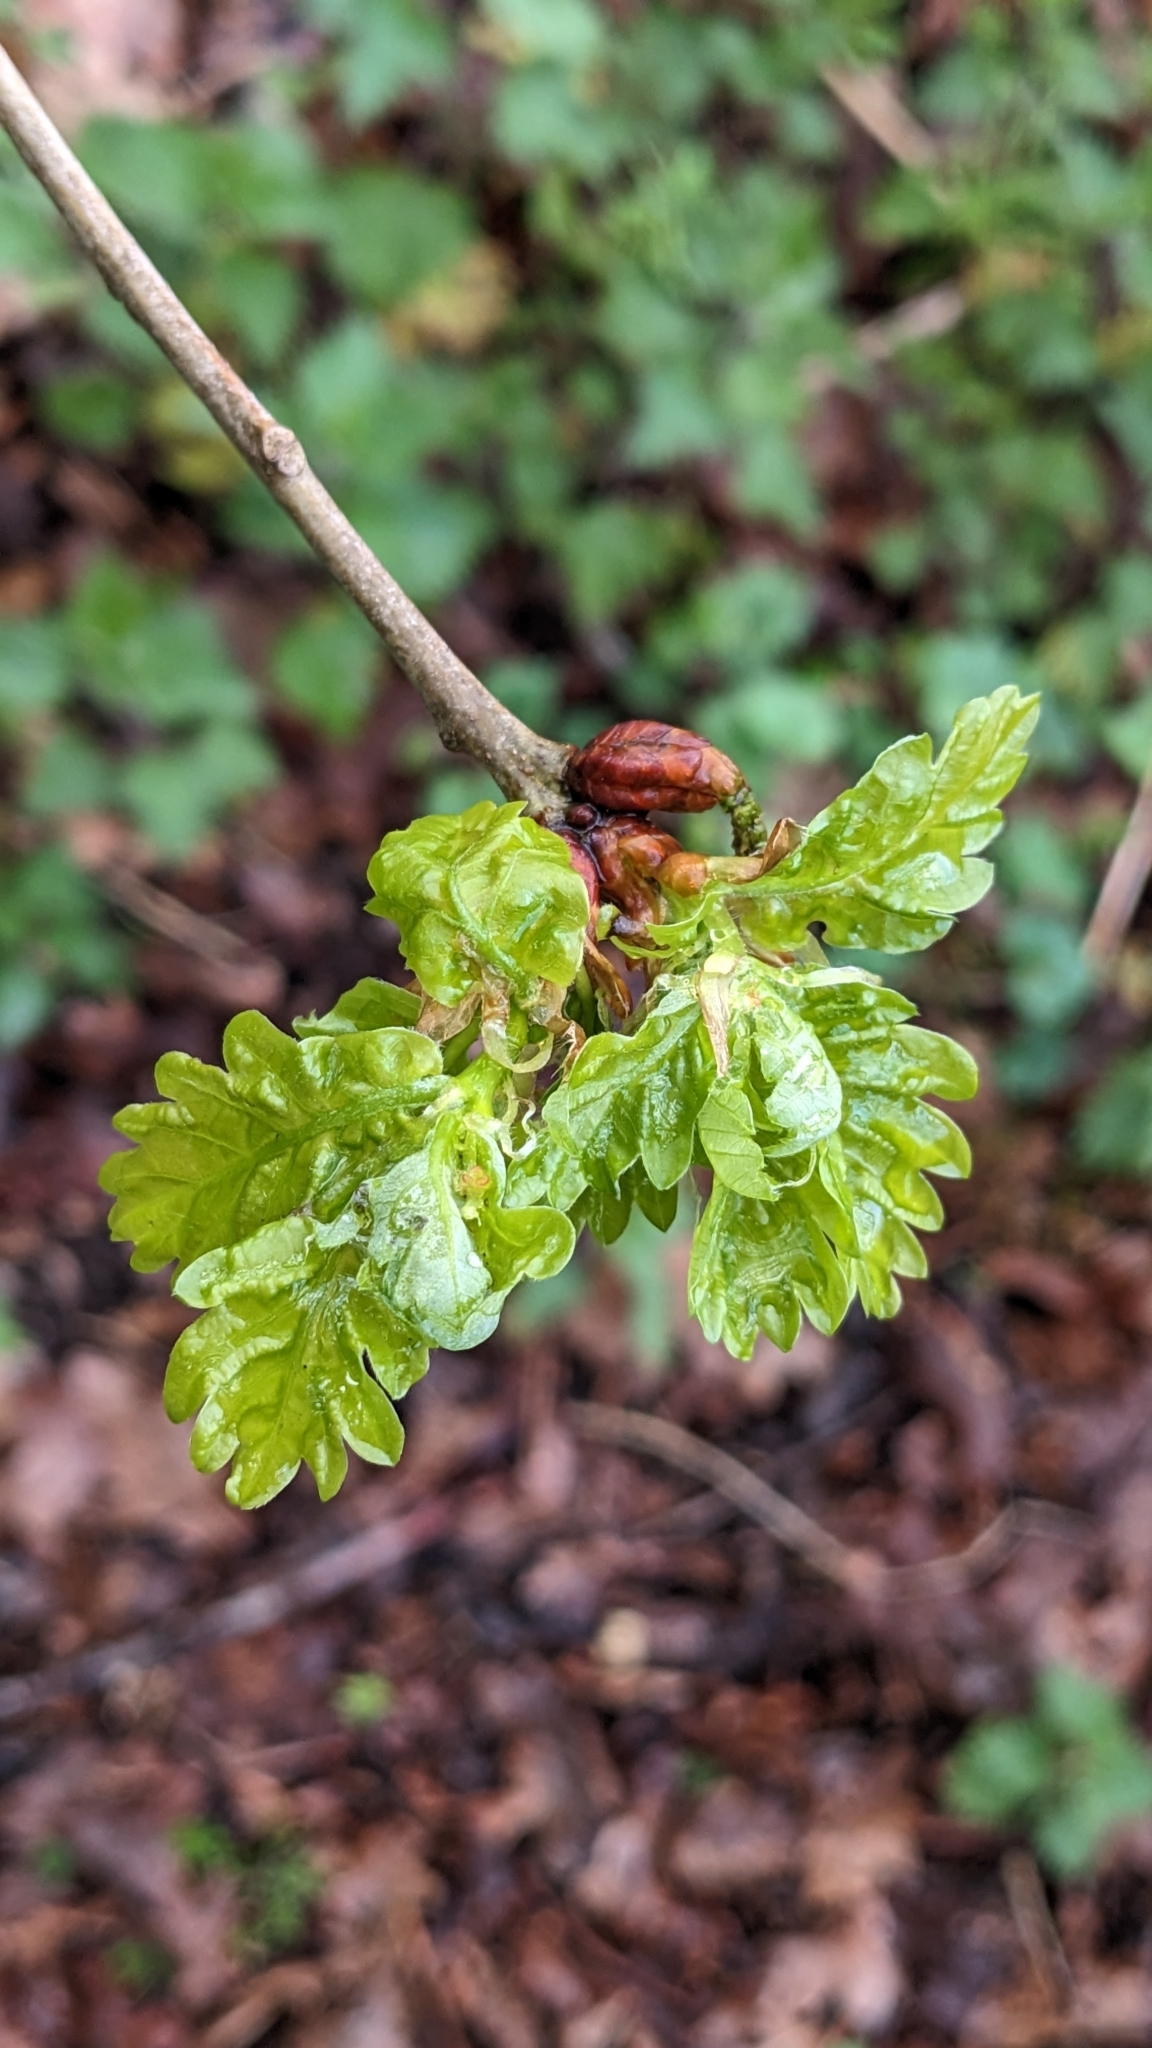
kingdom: Animalia
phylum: Arthropoda
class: Insecta
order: Hymenoptera
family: Cynipidae
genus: Andricus
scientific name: Andricus aries
